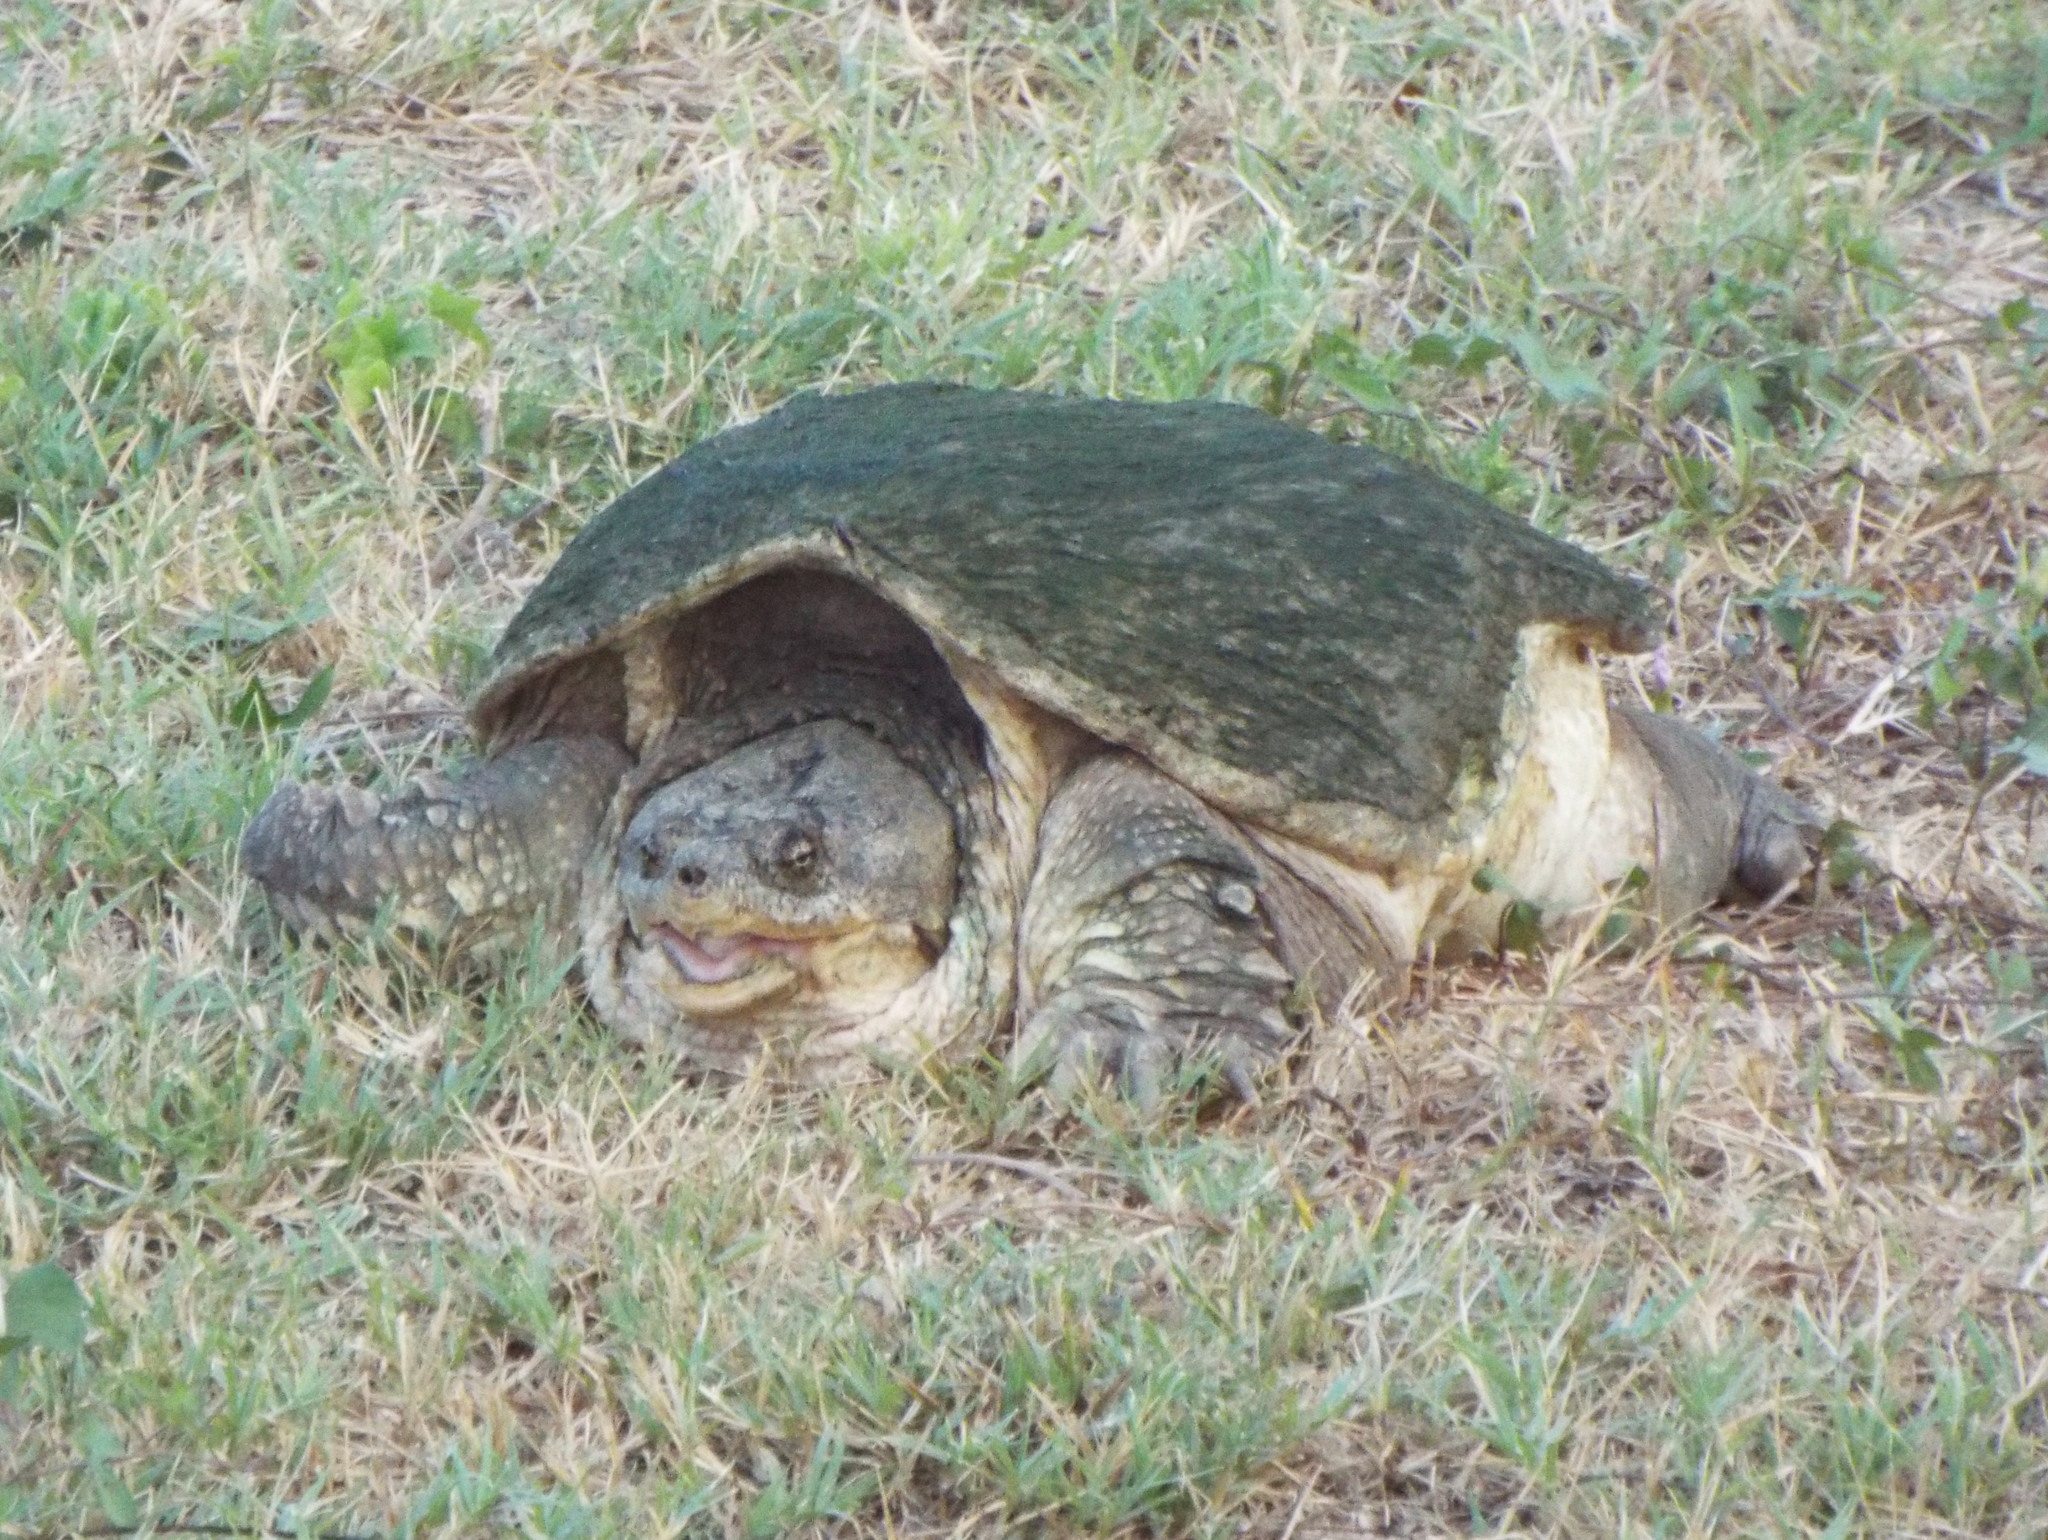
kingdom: Animalia
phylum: Chordata
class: Testudines
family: Chelydridae
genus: Chelydra
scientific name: Chelydra serpentina
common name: Common snapping turtle
